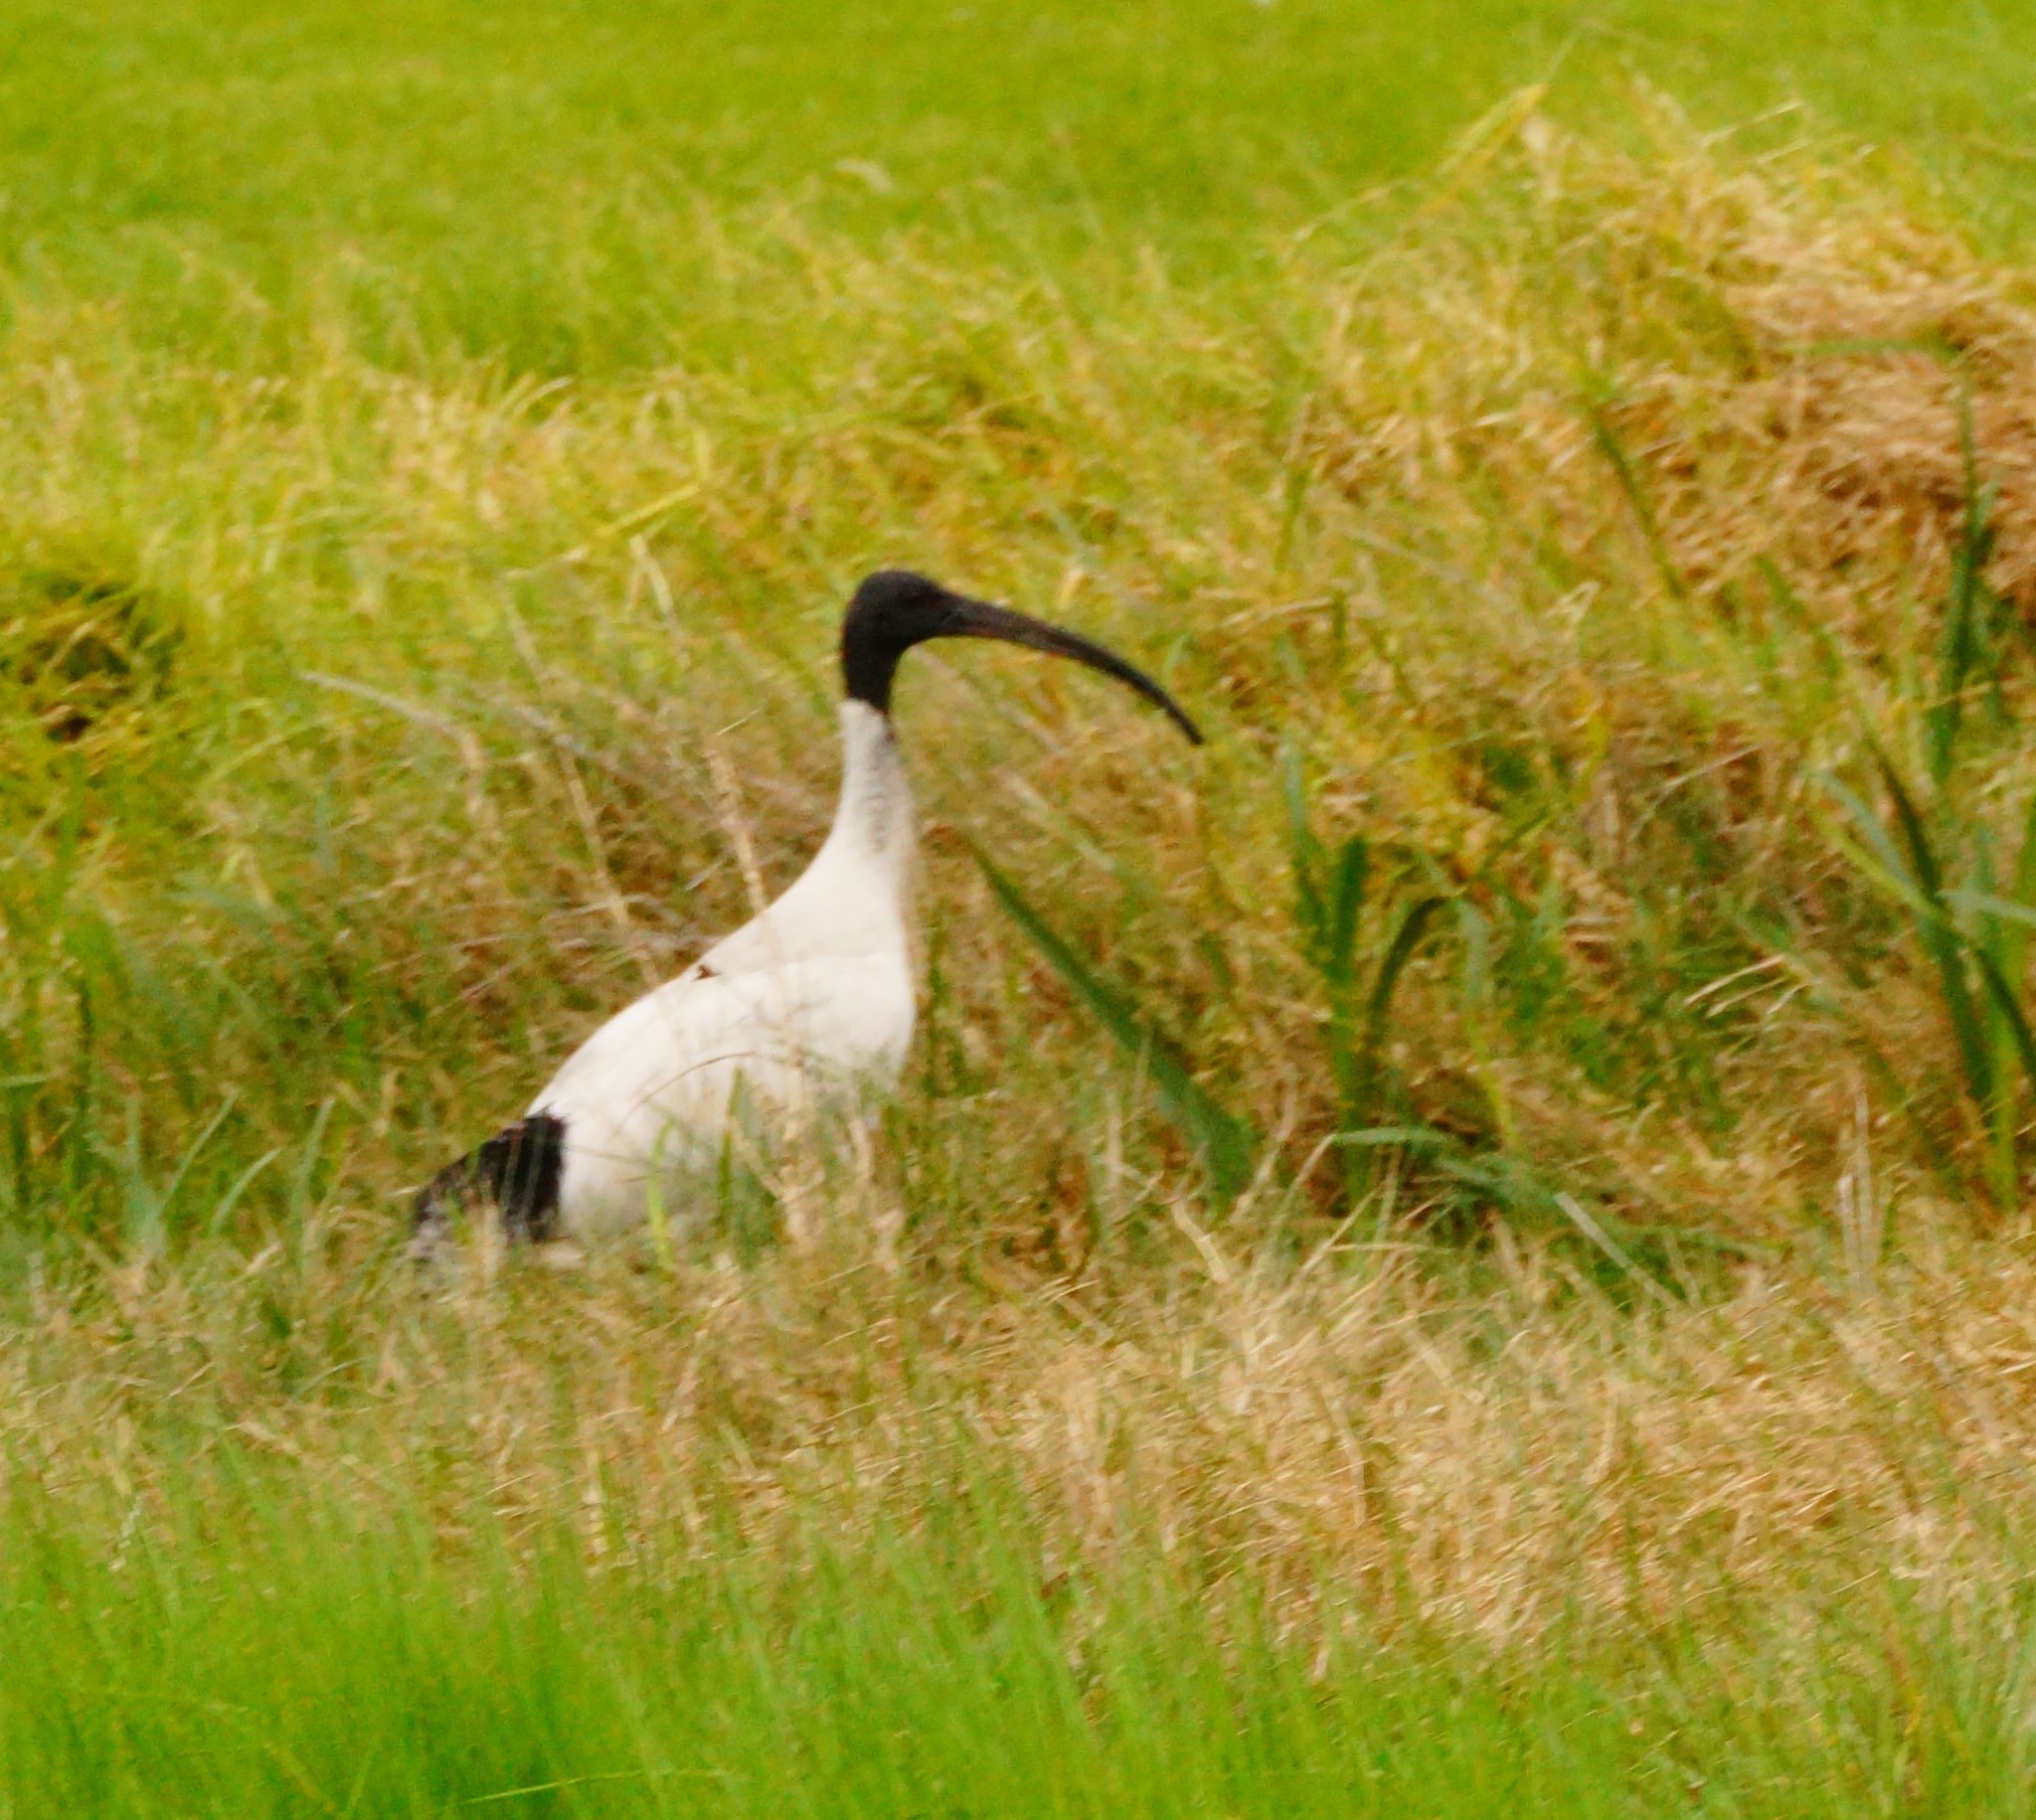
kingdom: Animalia
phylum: Chordata
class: Aves
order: Pelecaniformes
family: Threskiornithidae
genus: Threskiornis
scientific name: Threskiornis molucca
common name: Australian white ibis
